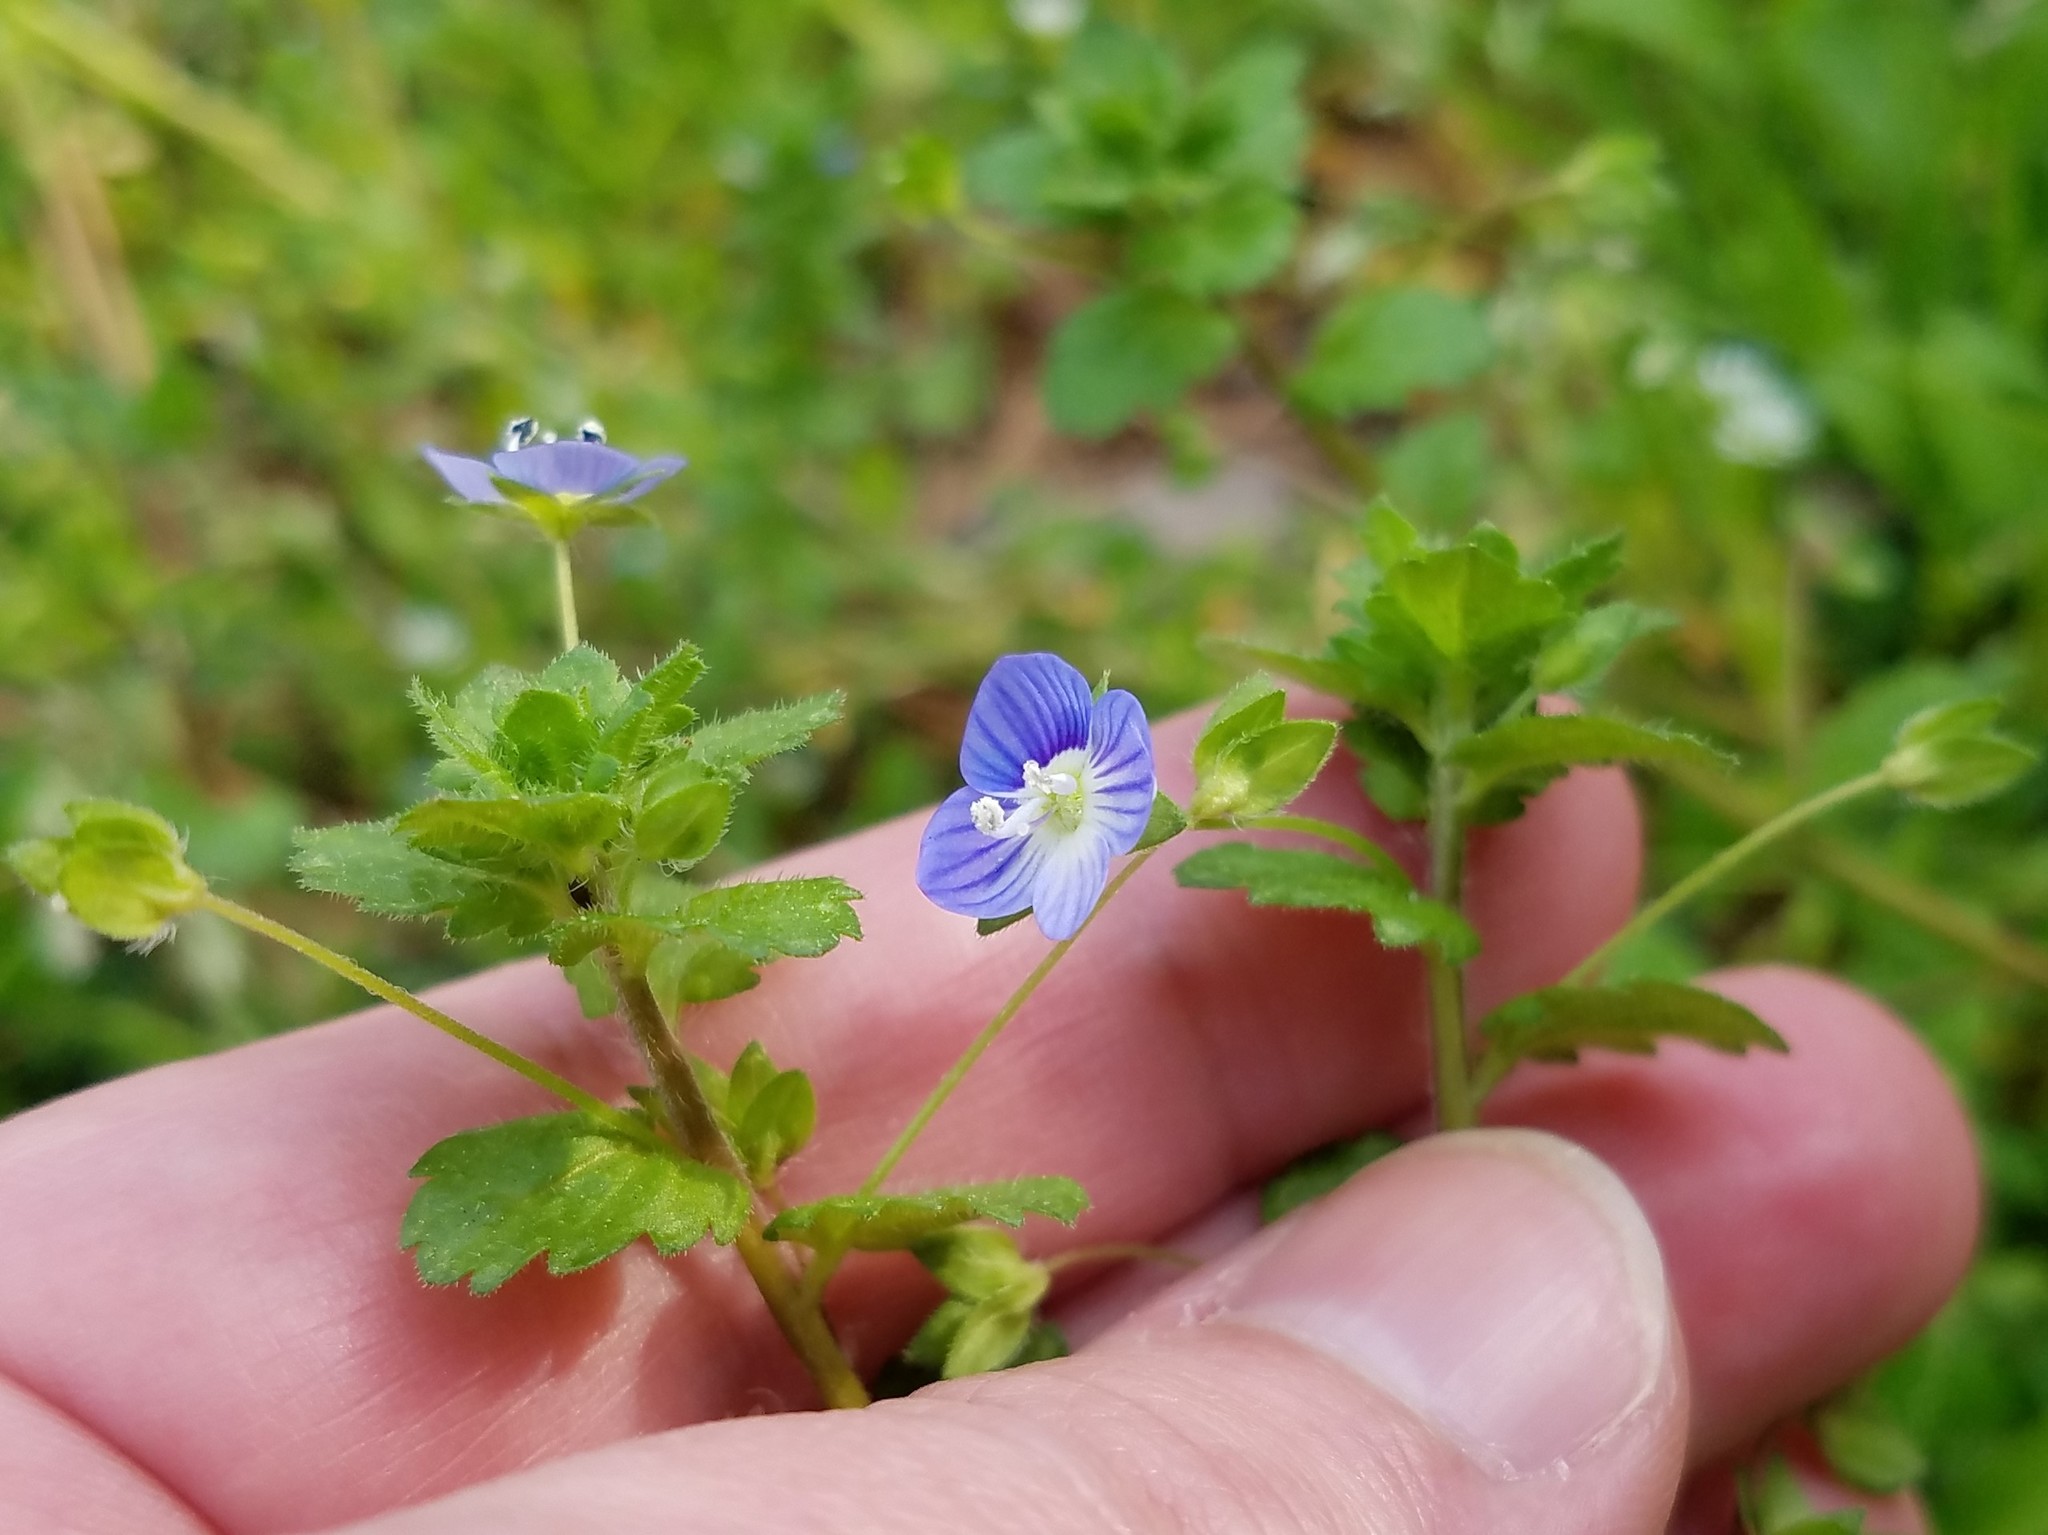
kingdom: Plantae
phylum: Tracheophyta
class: Magnoliopsida
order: Lamiales
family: Plantaginaceae
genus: Veronica
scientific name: Veronica persica
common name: Common field-speedwell
